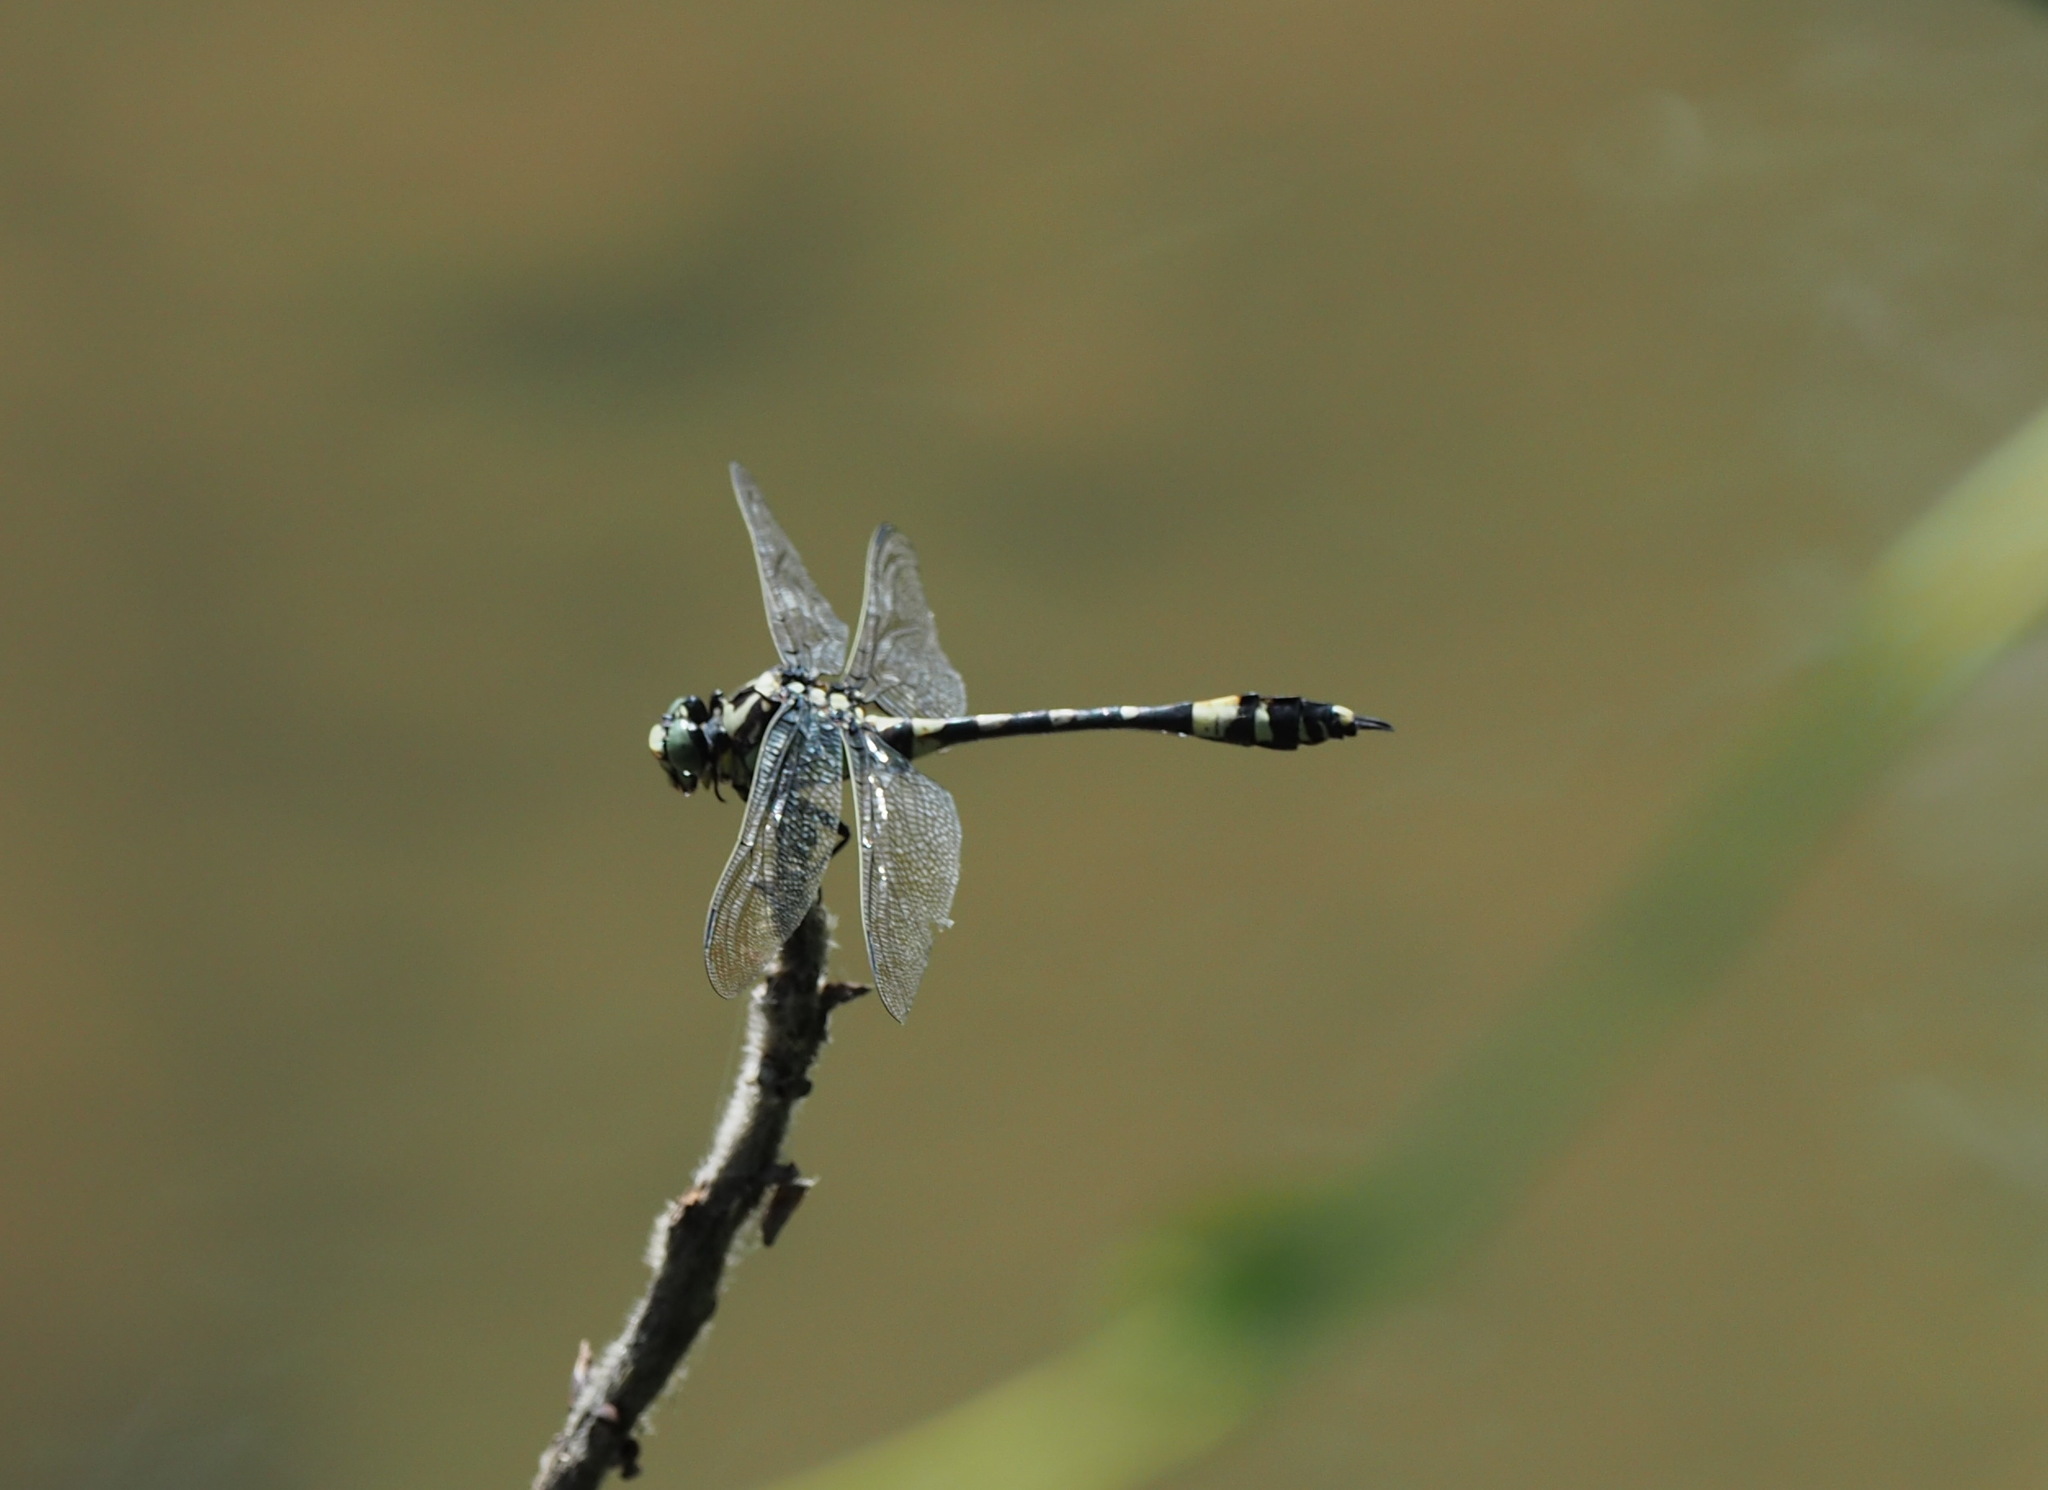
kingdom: Animalia
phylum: Arthropoda
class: Insecta
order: Odonata
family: Gomphidae
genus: Gomphidia
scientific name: Gomphidia confluens
